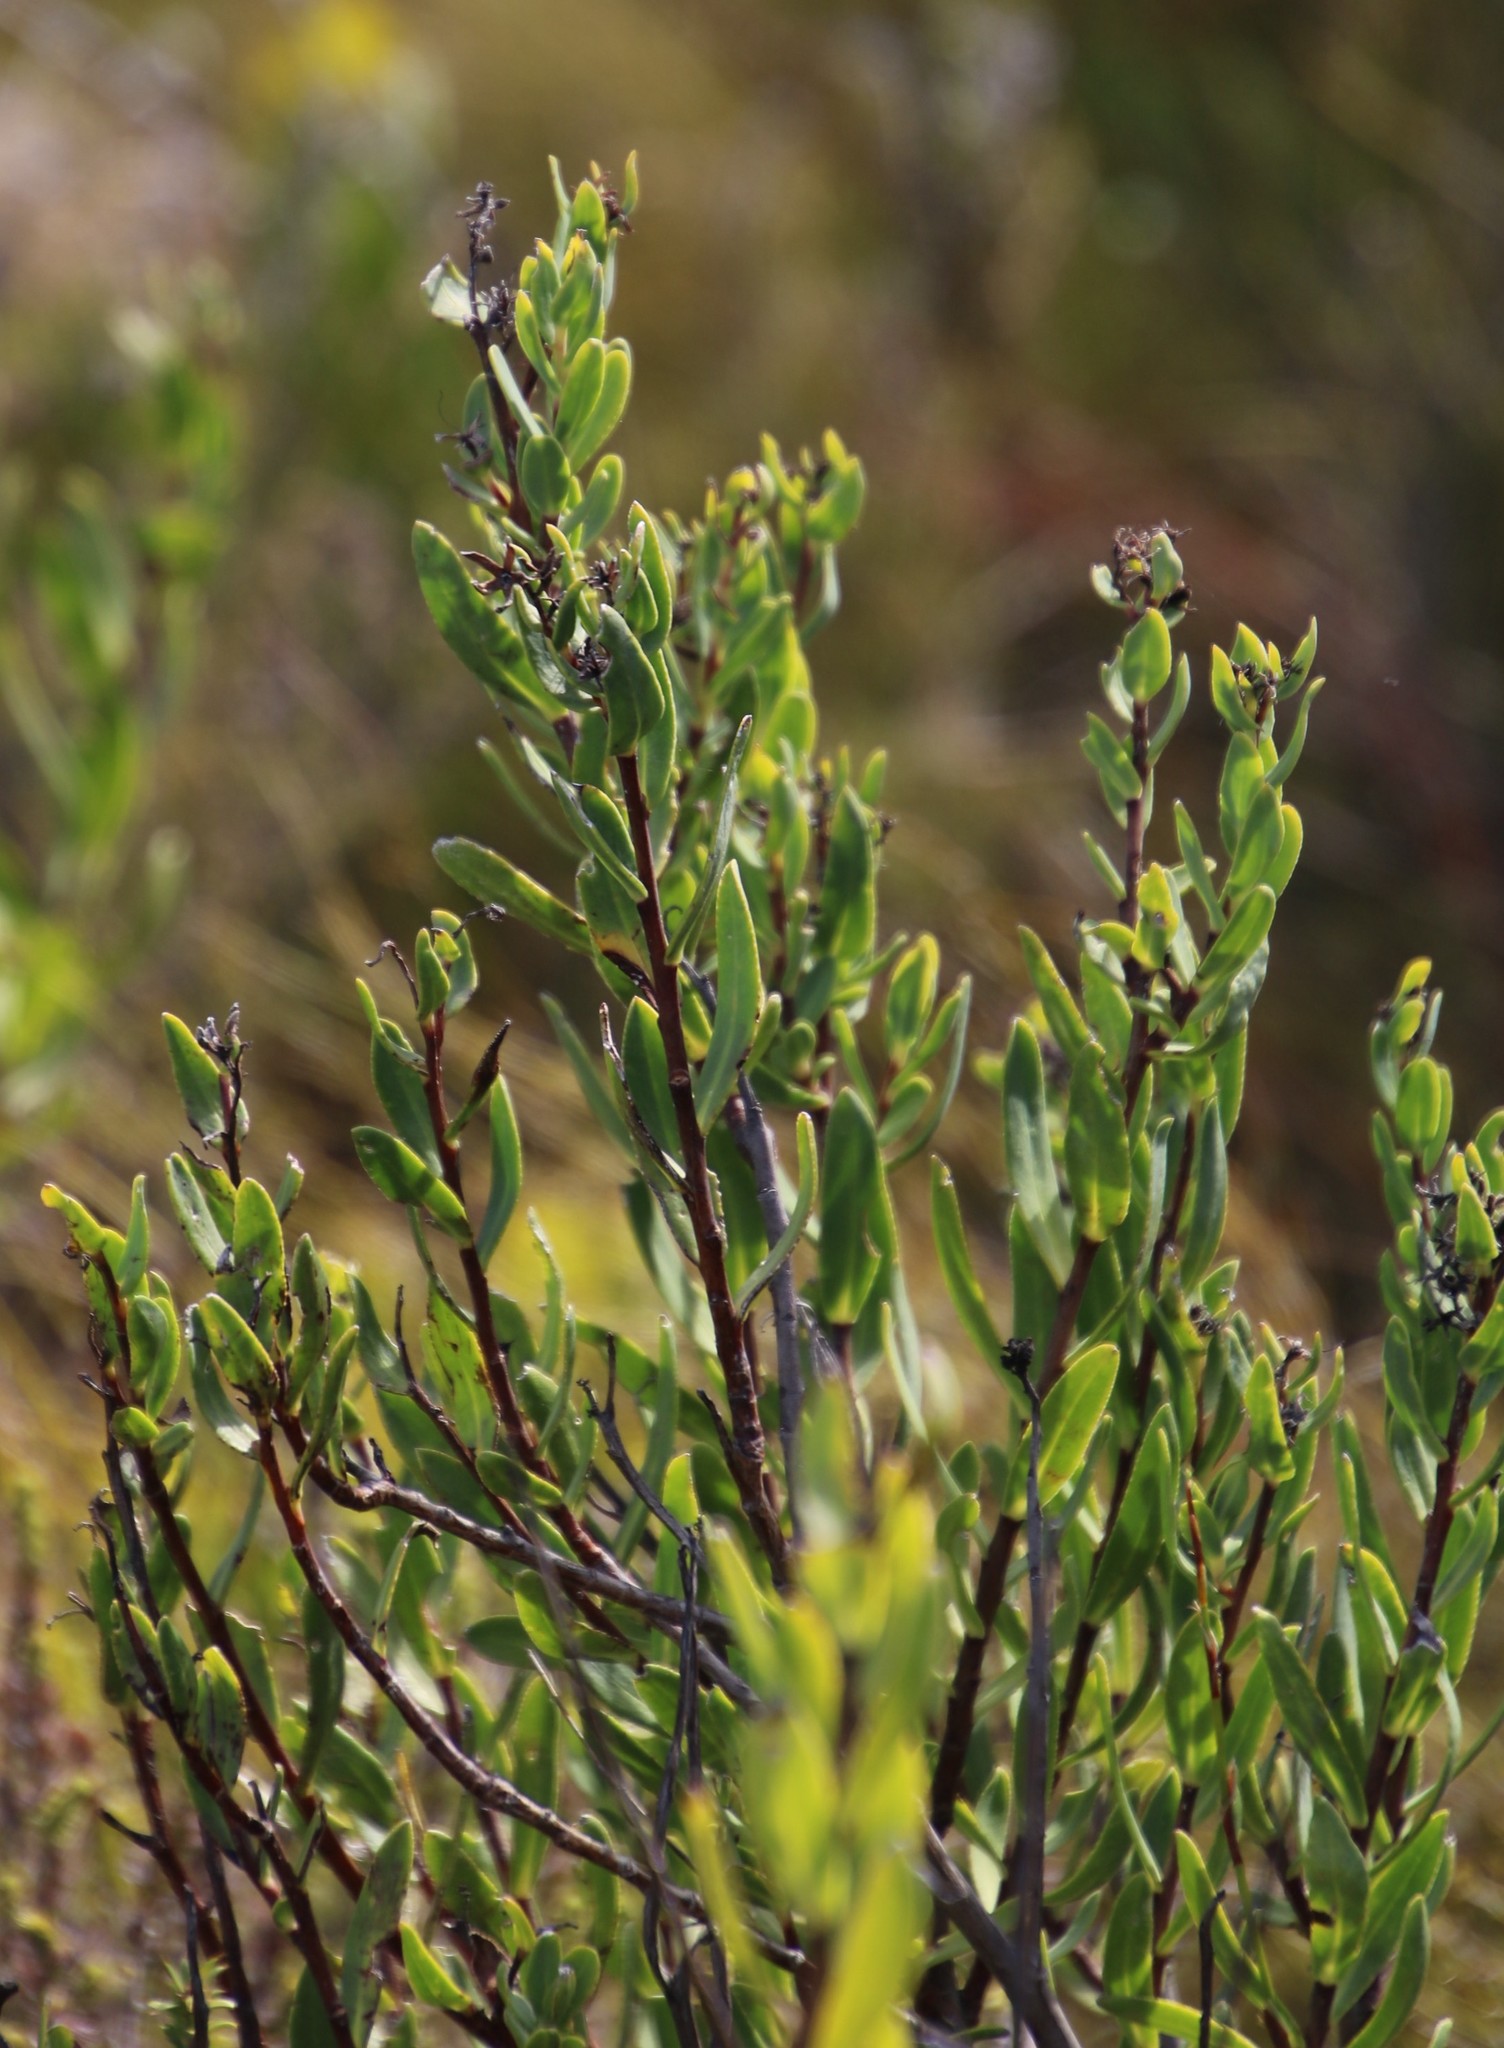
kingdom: Plantae
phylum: Tracheophyta
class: Magnoliopsida
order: Boraginales
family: Boraginaceae
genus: Lobostemon
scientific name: Lobostemon glaucophyllus
